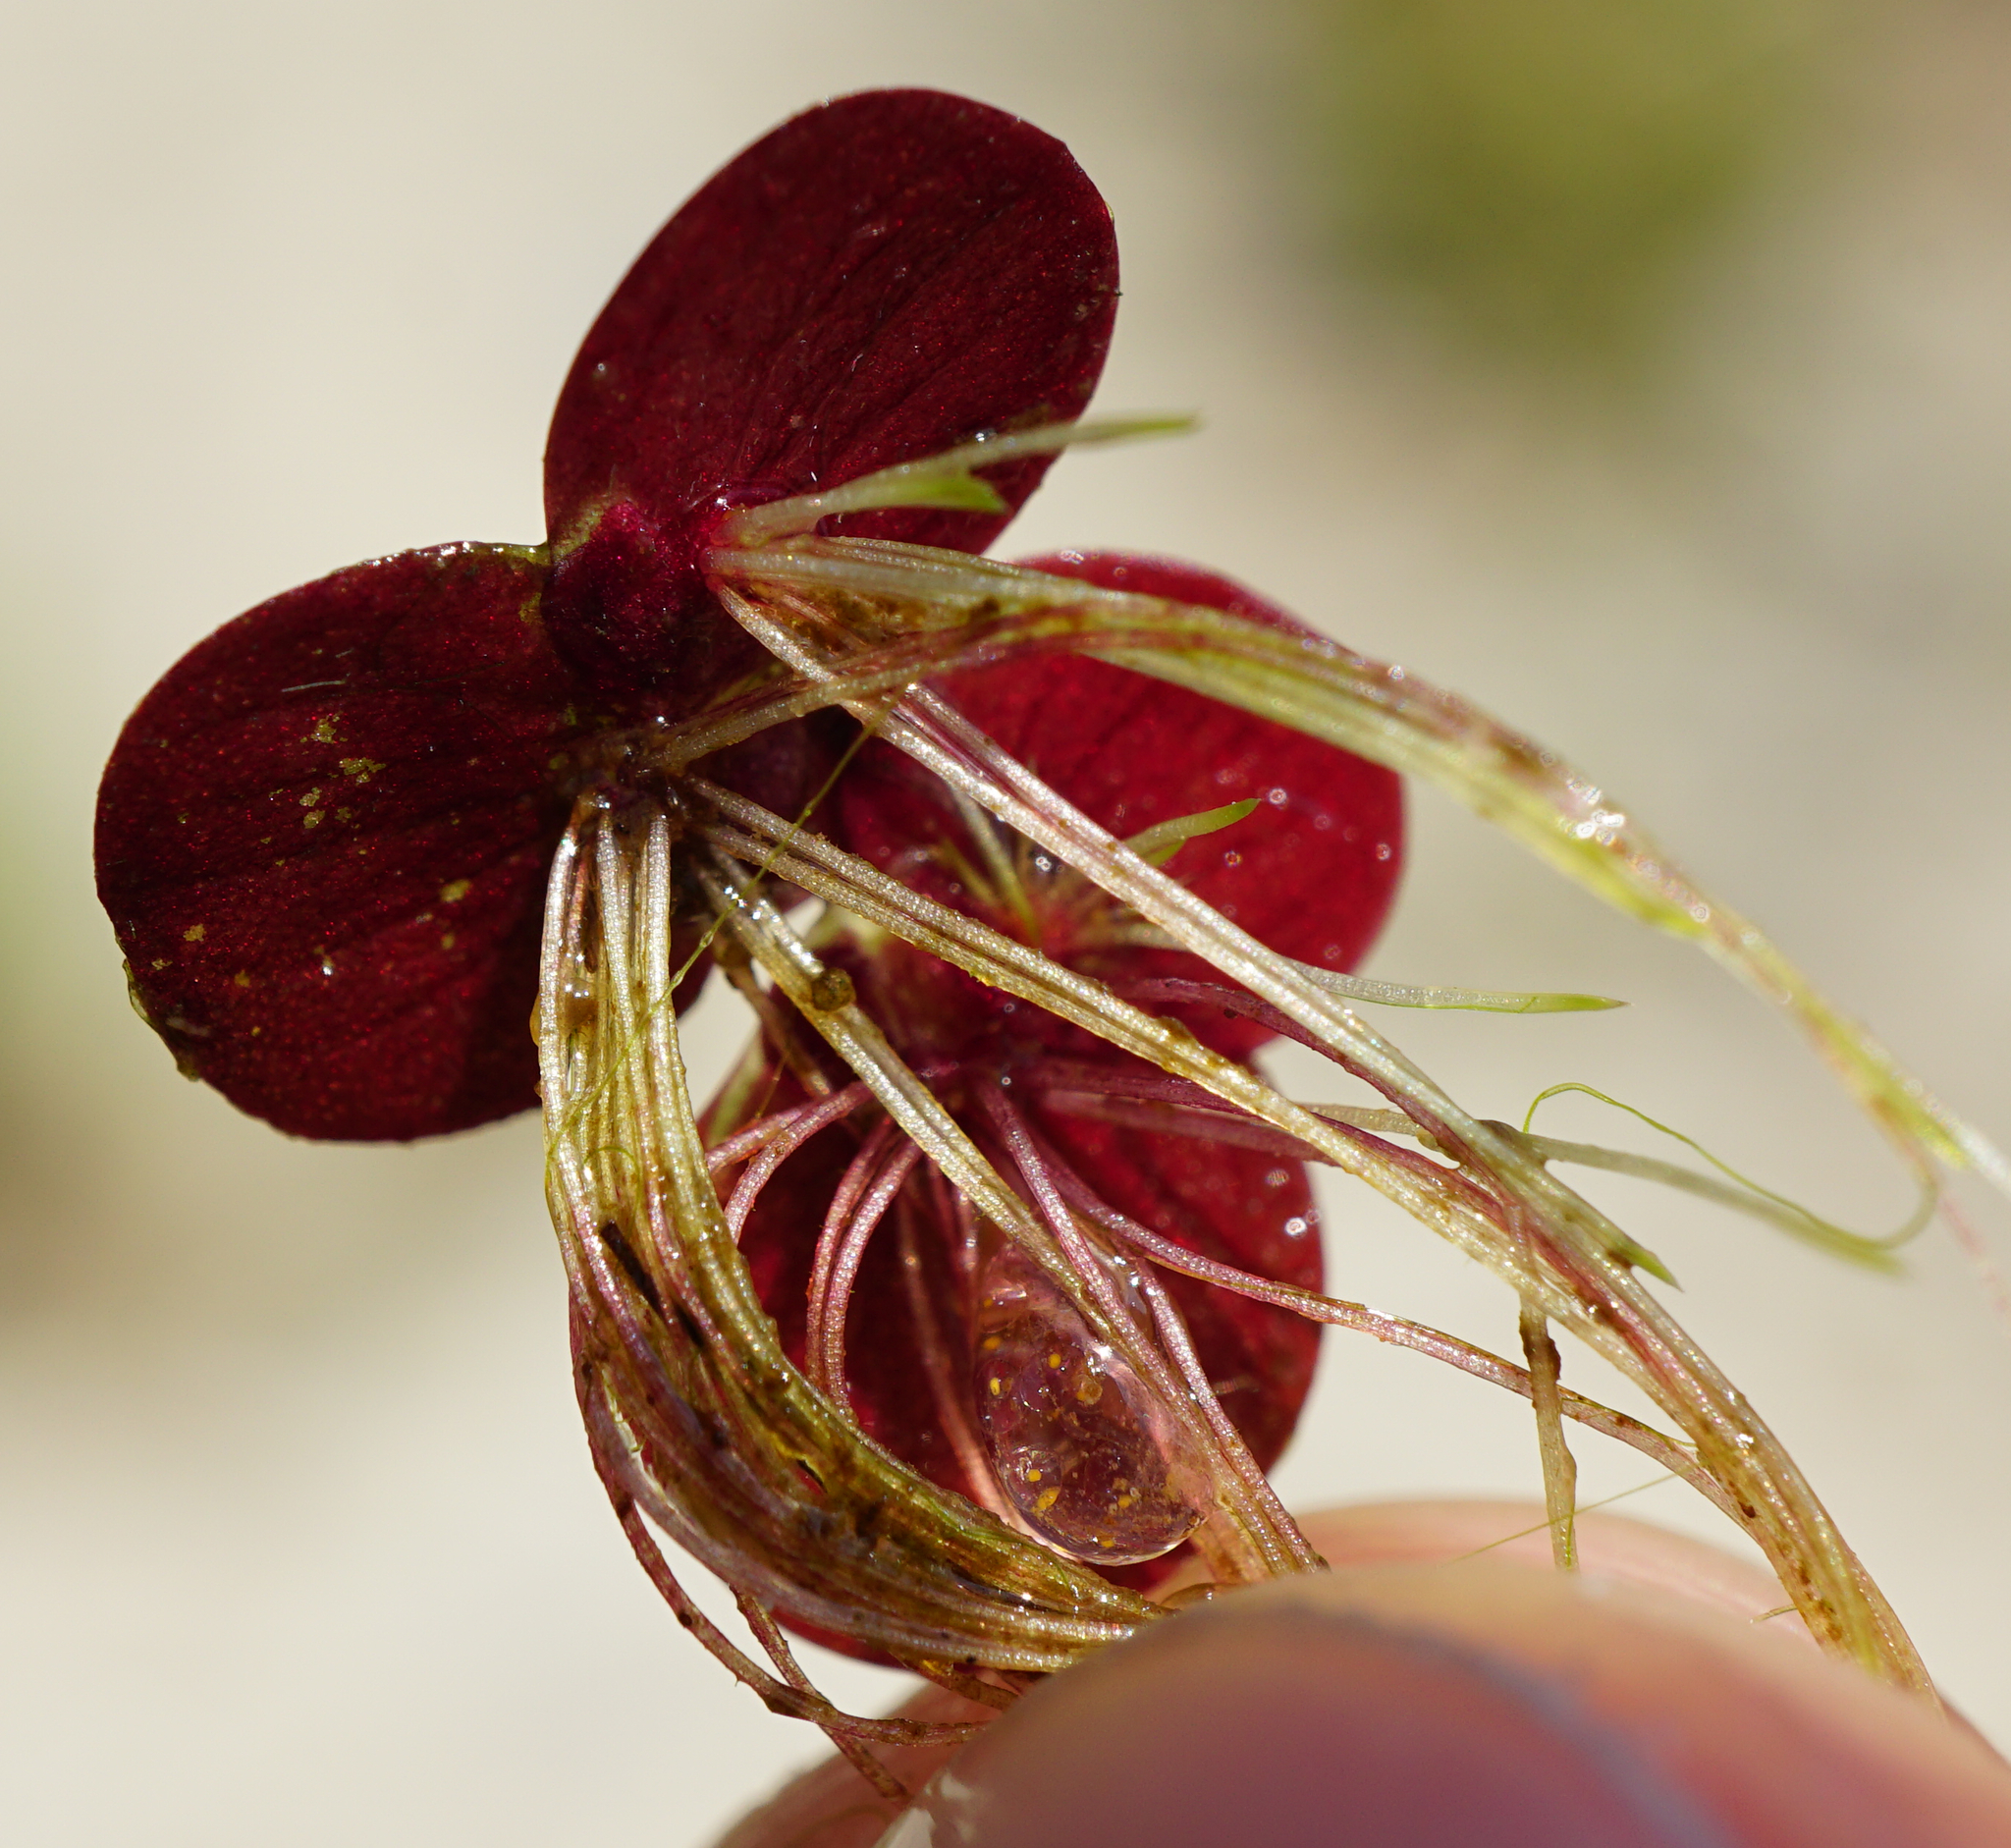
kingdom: Plantae
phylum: Tracheophyta
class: Liliopsida
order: Alismatales
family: Araceae
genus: Spirodela
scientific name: Spirodela polyrhiza
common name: Great duckweed
